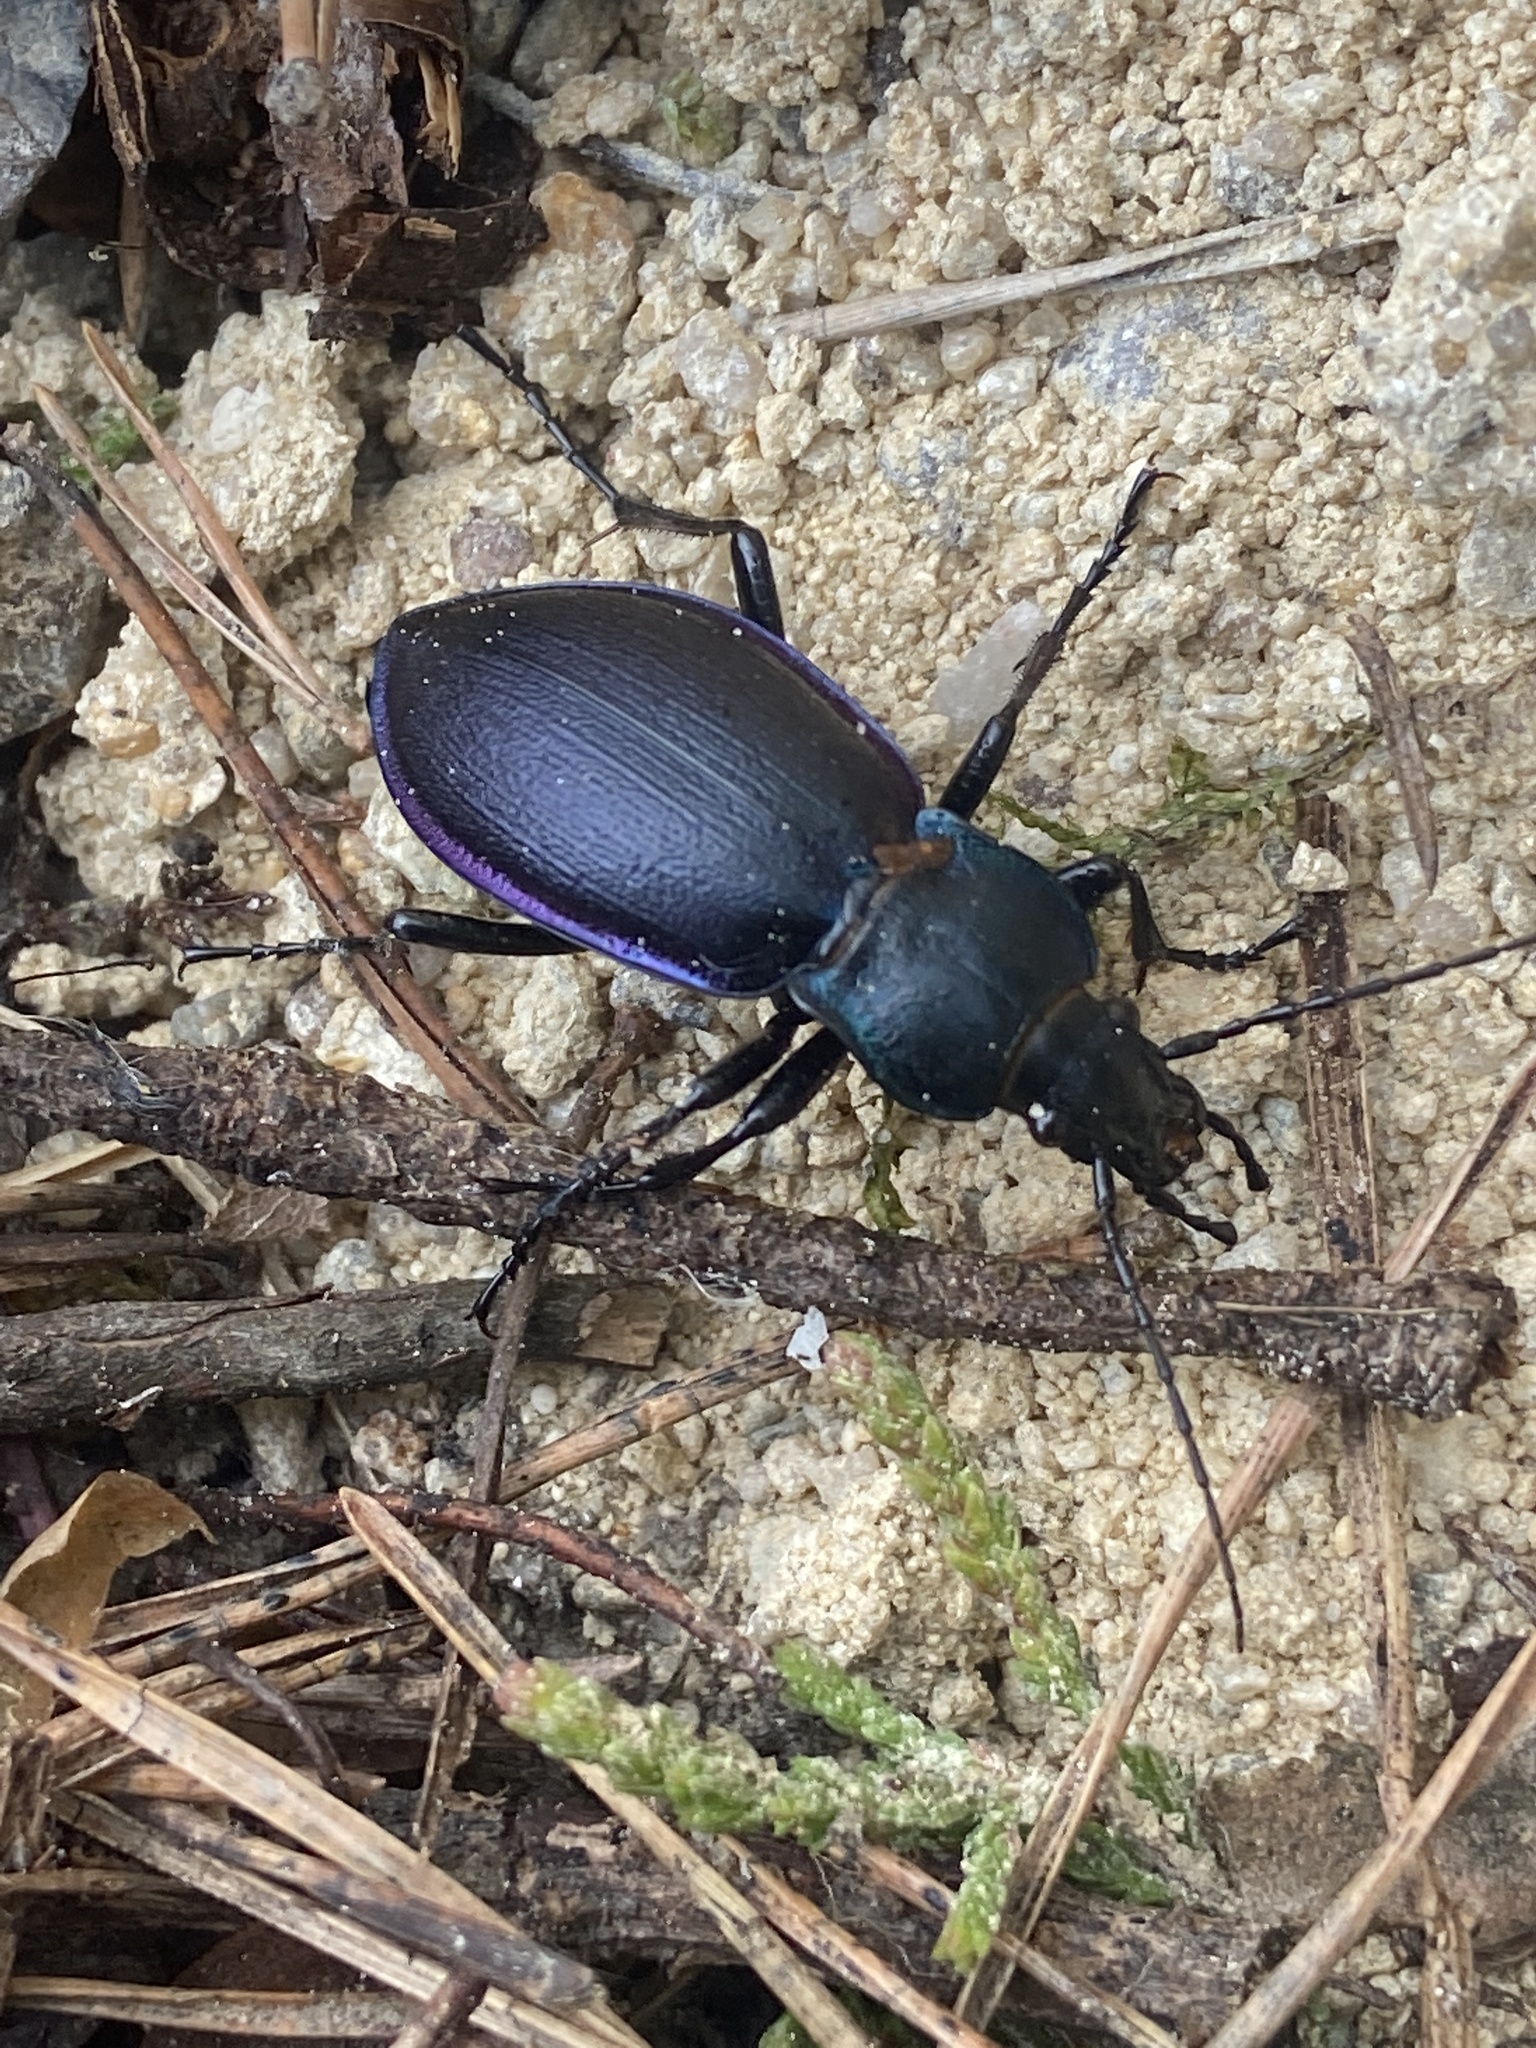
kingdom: Animalia
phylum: Arthropoda
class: Insecta
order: Coleoptera
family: Carabidae
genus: Carabus
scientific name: Carabus violaceus
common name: Violet ground beetle
